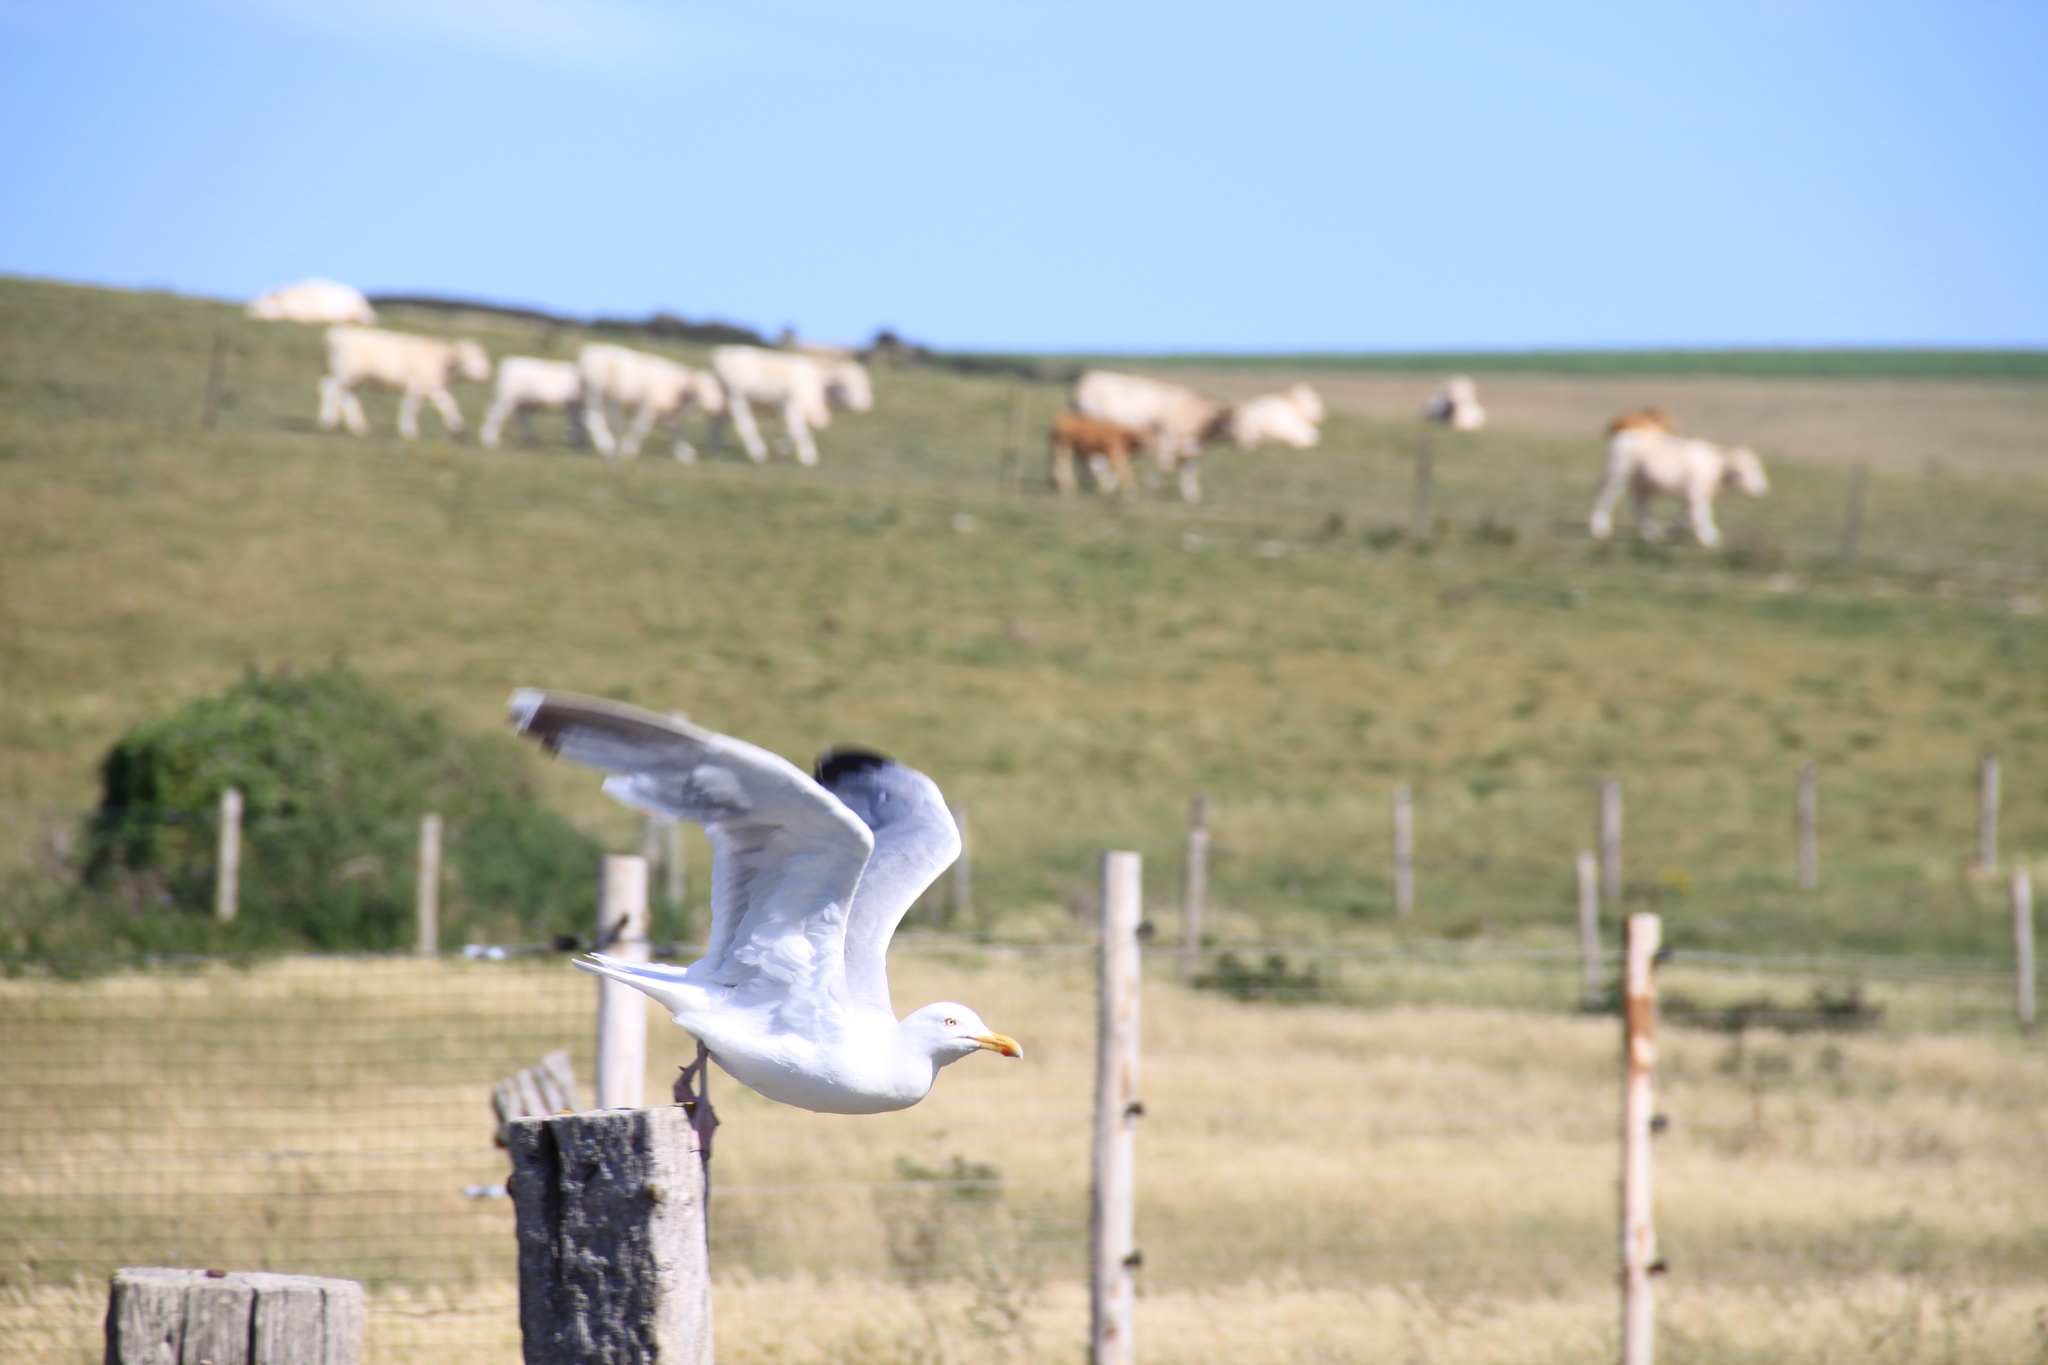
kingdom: Animalia
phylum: Chordata
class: Aves
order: Charadriiformes
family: Laridae
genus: Larus
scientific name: Larus argentatus
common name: Herring gull
